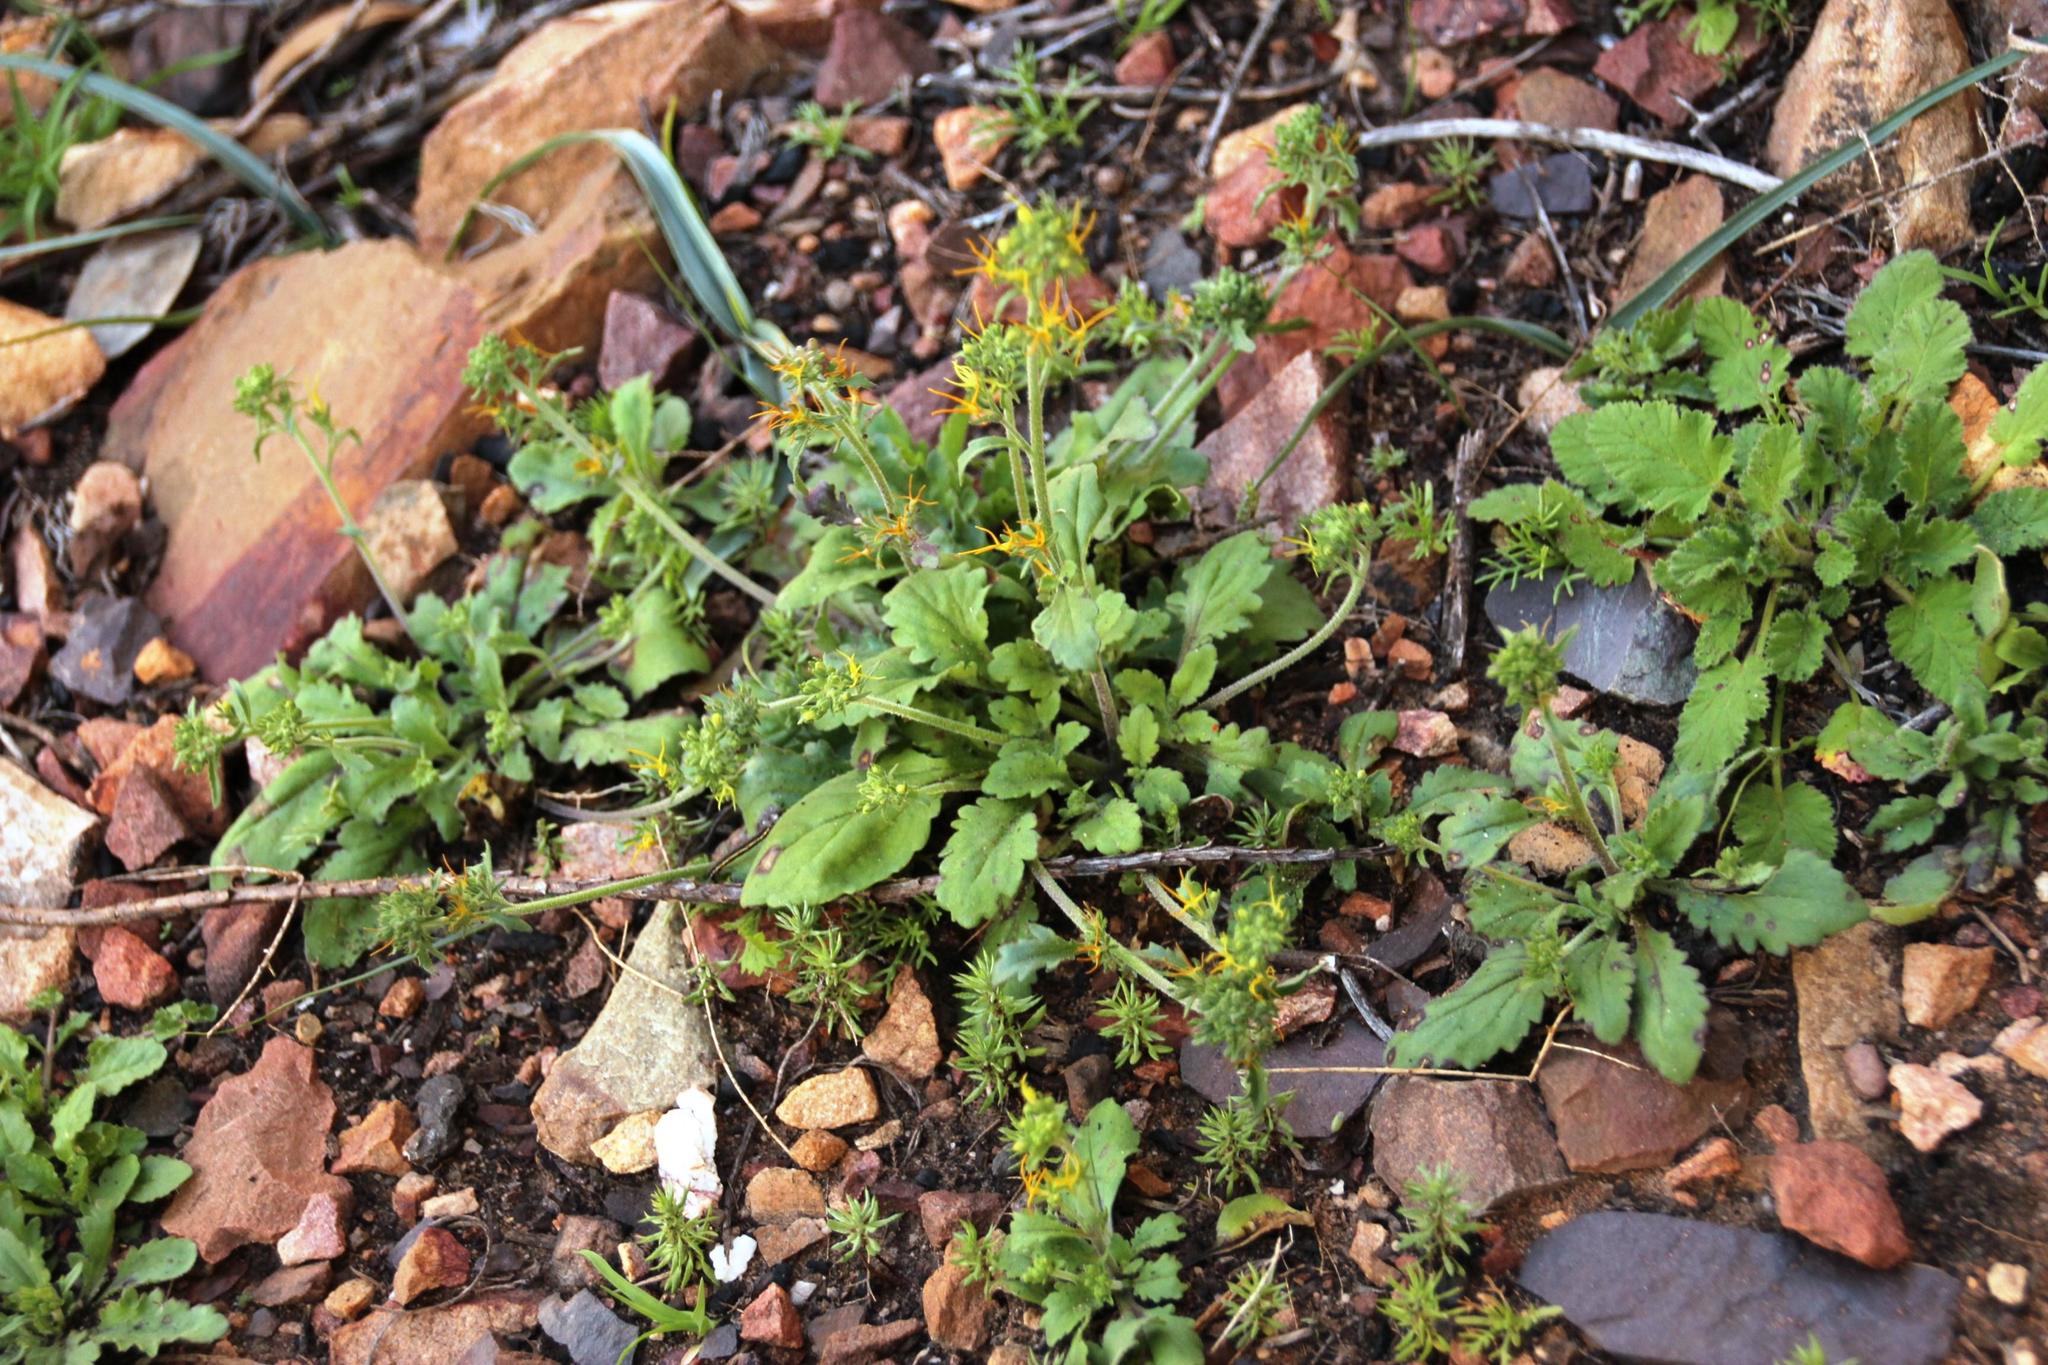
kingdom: Plantae
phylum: Tracheophyta
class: Magnoliopsida
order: Lamiales
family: Scrophulariaceae
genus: Manulea
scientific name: Manulea cheiranthus
